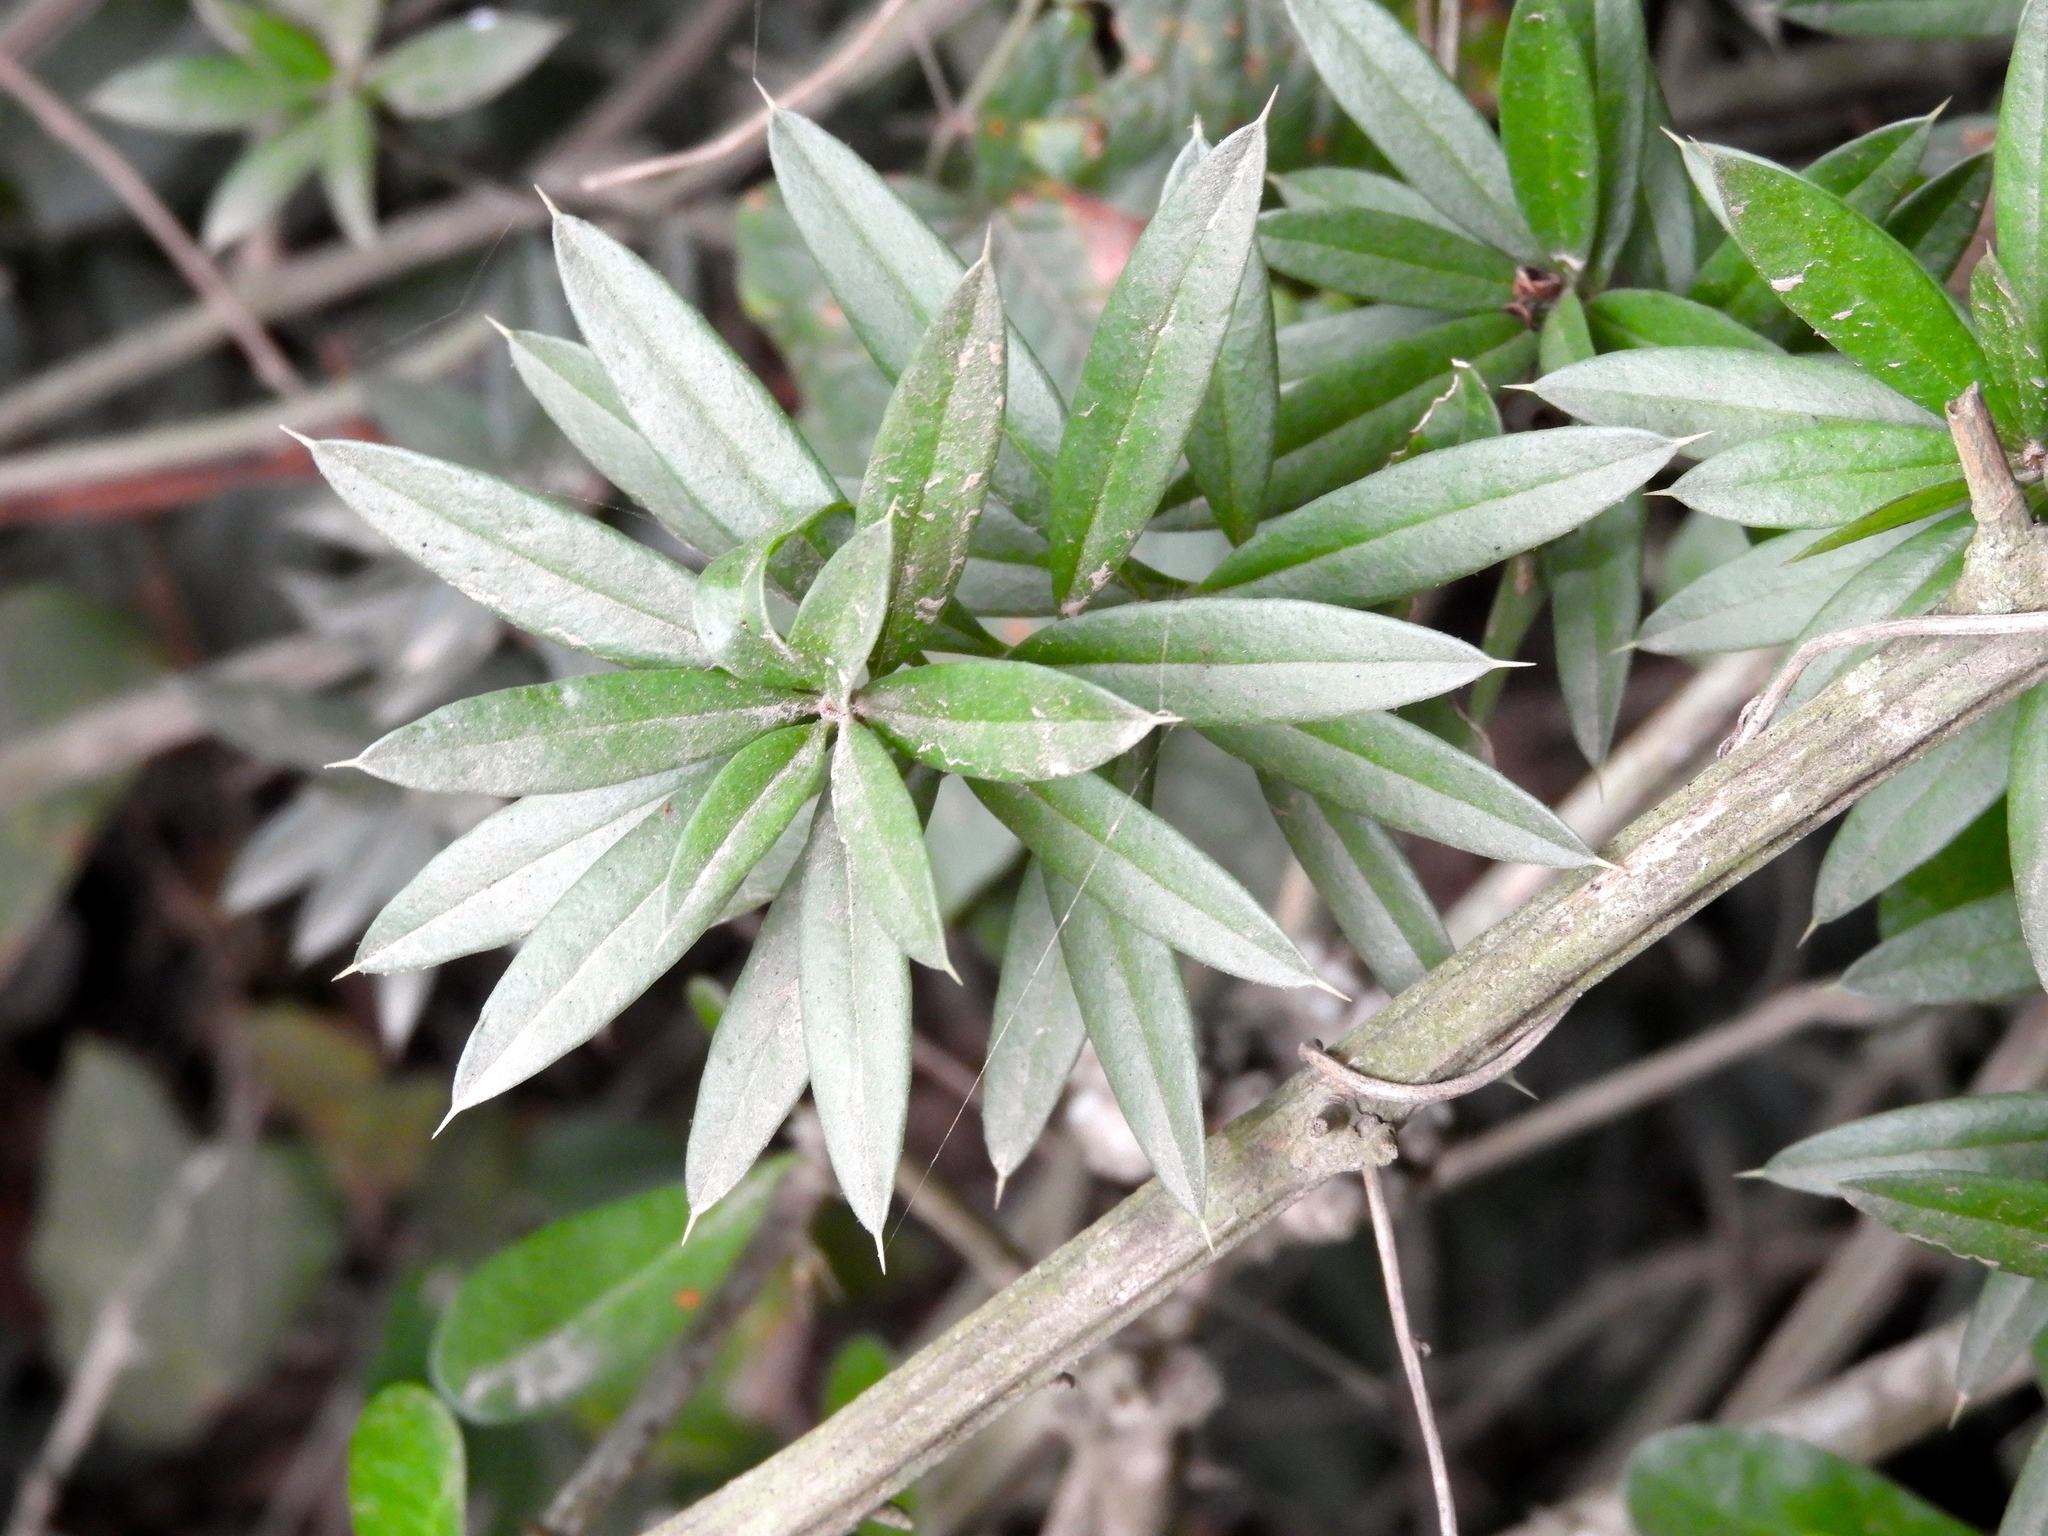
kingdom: Plantae
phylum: Tracheophyta
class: Magnoliopsida
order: Ericales
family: Primulaceae
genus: Bonellia
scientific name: Bonellia macrocarpa
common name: Primrose
